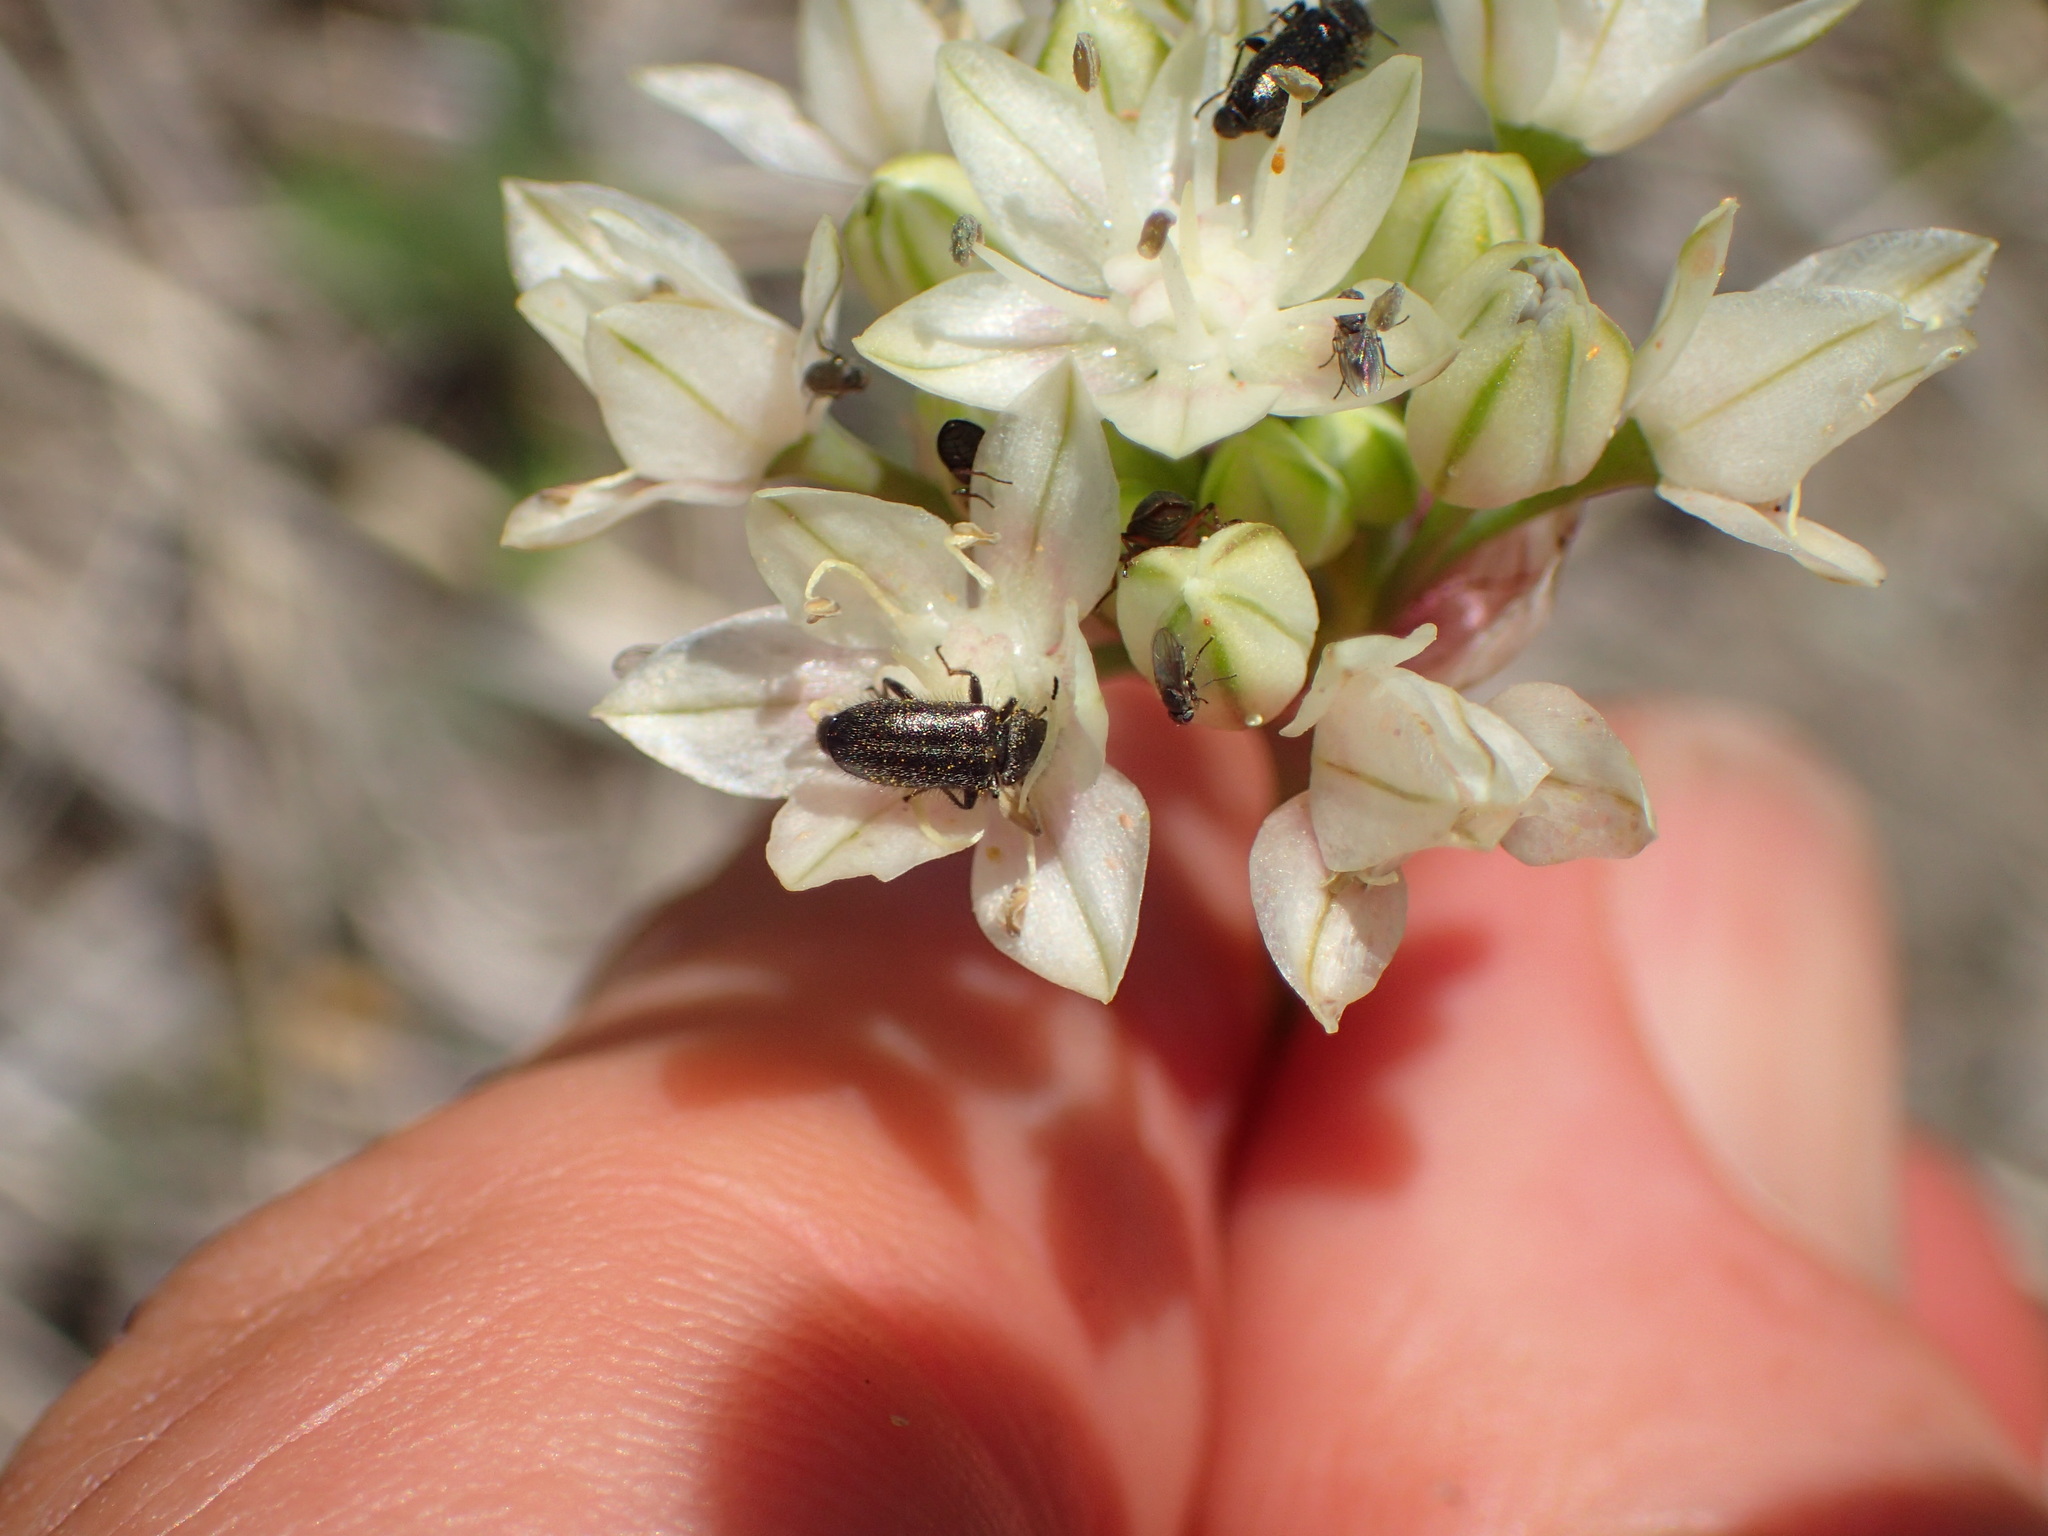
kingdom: Plantae
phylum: Tracheophyta
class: Liliopsida
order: Asparagales
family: Amaryllidaceae
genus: Allium
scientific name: Allium haematochiton
